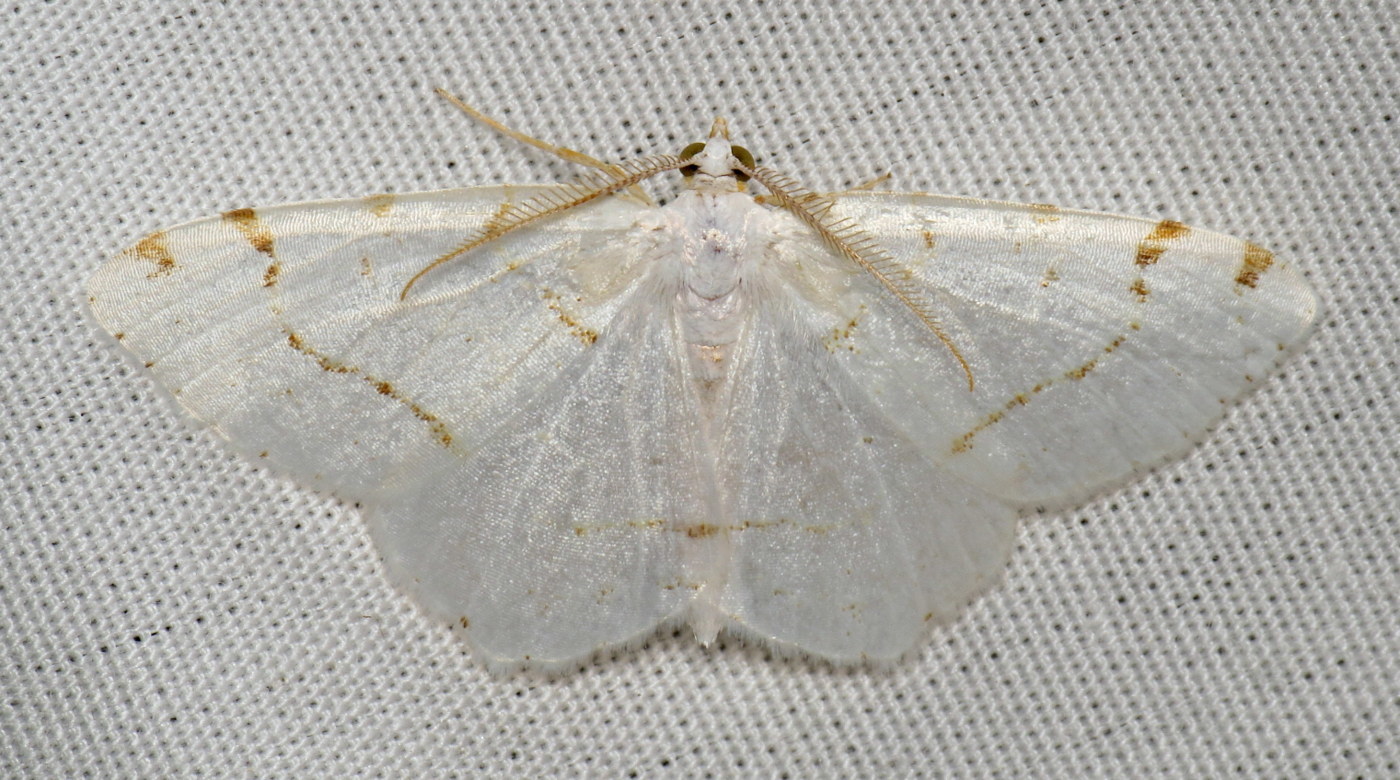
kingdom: Animalia
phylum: Arthropoda
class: Insecta
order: Lepidoptera
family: Geometridae
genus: Macaria
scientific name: Macaria pustularia
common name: Lesser maple spanworm moth
